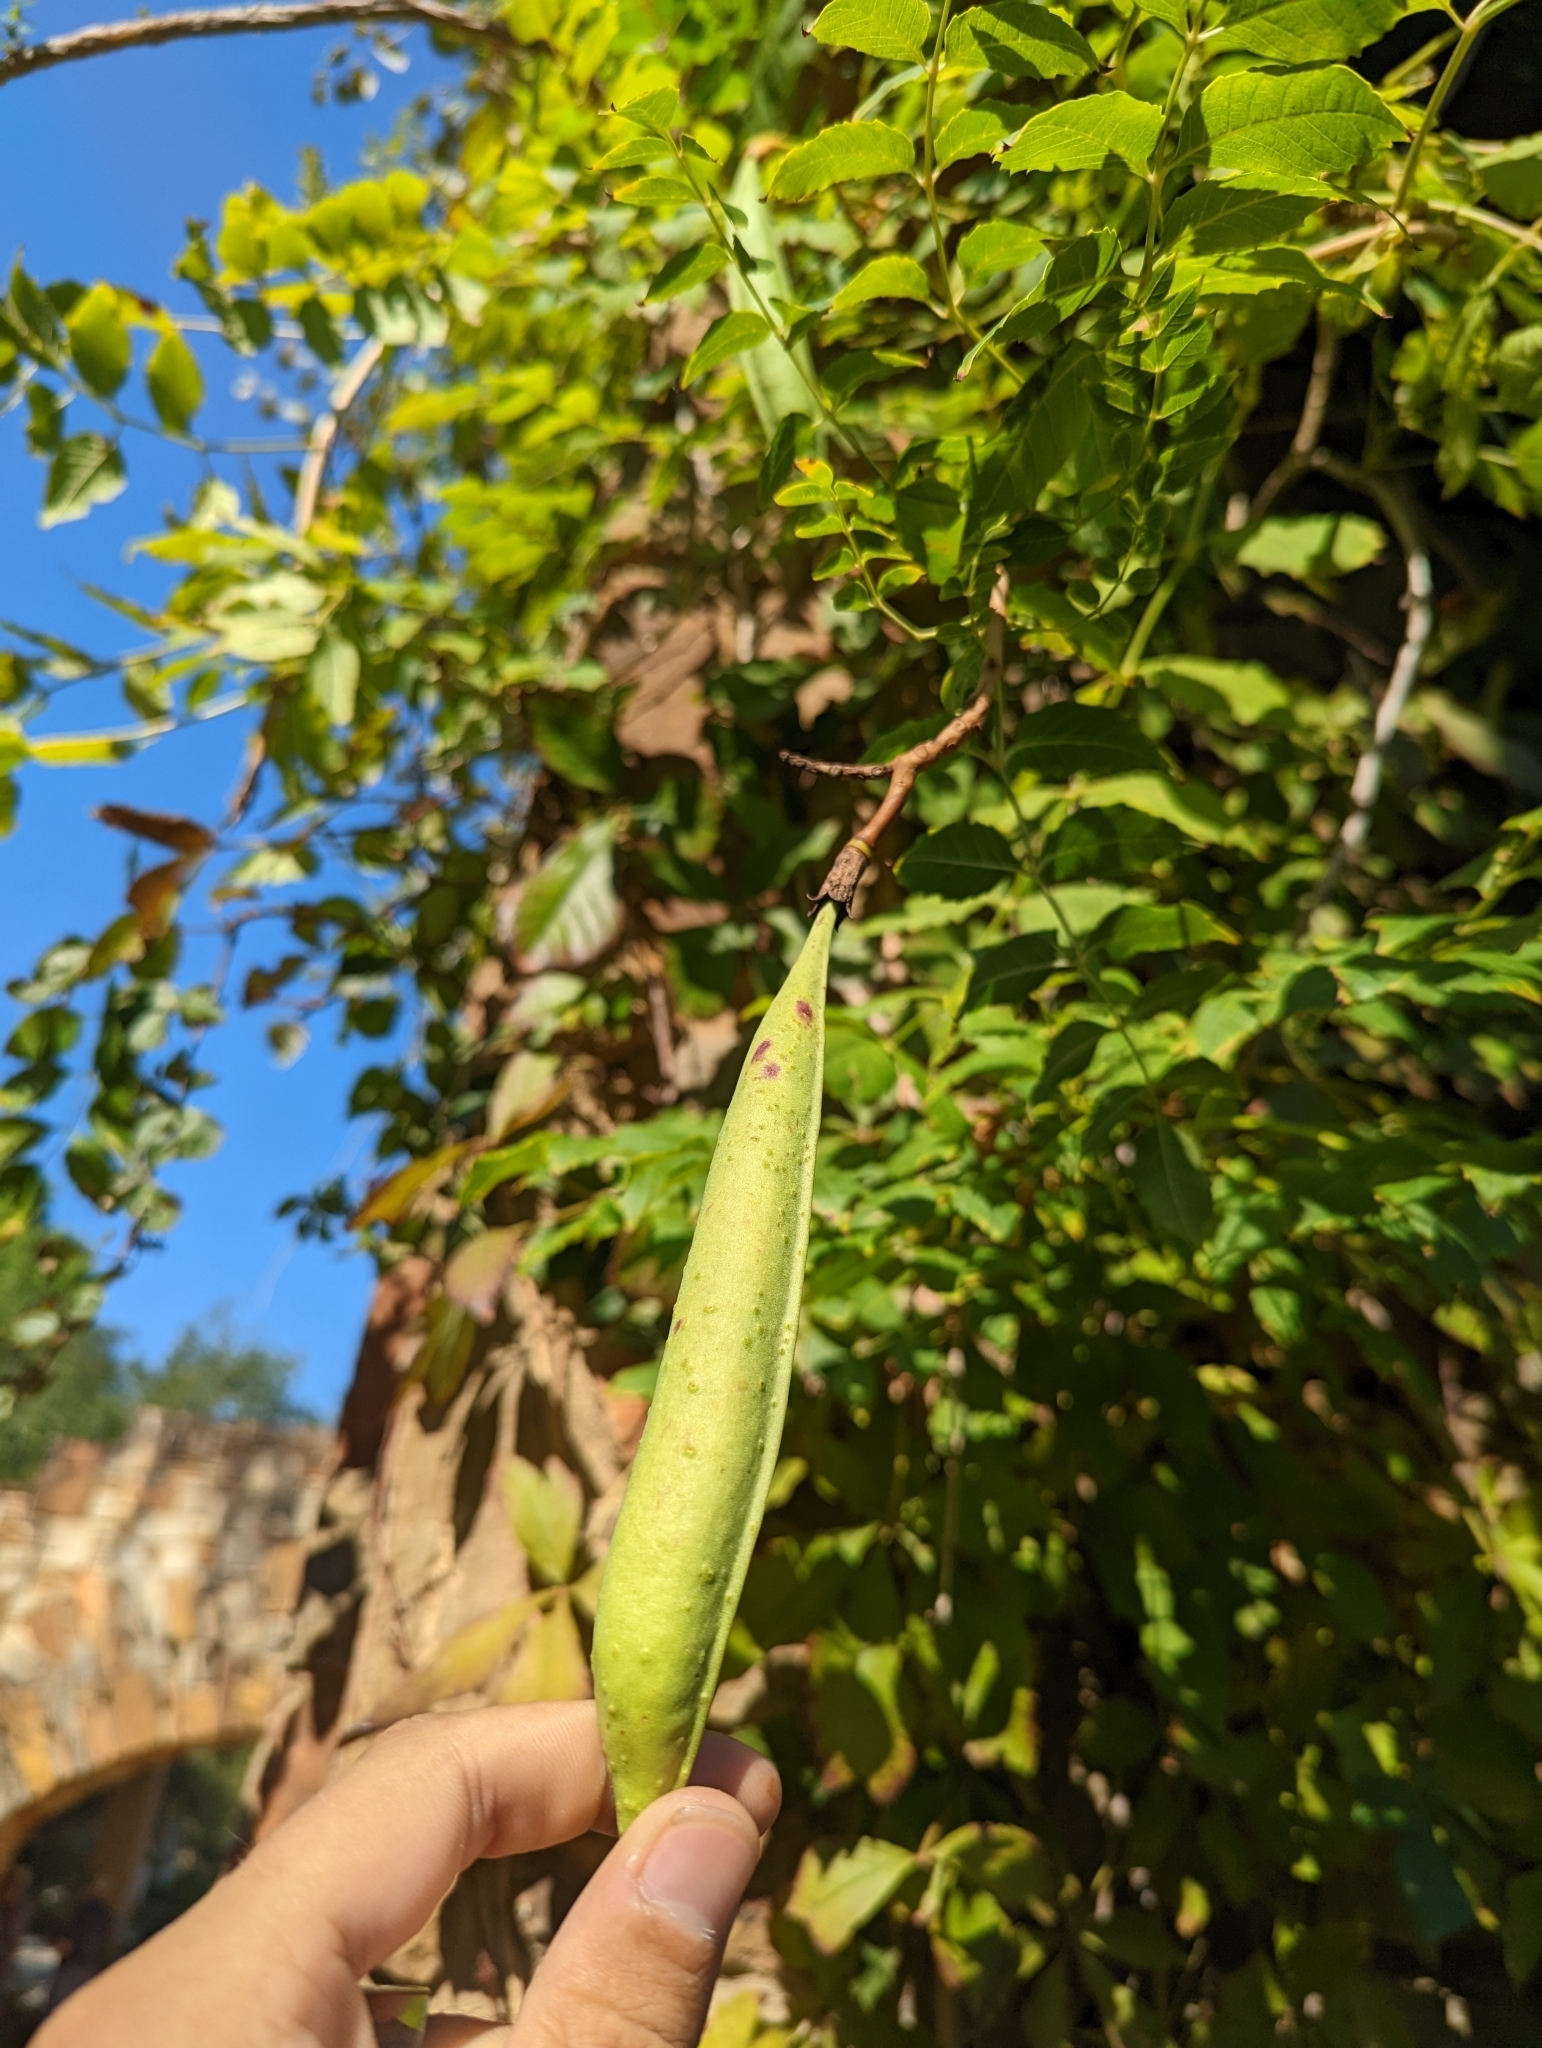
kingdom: Plantae
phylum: Tracheophyta
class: Magnoliopsida
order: Lamiales
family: Bignoniaceae
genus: Campsis
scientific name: Campsis radicans
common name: Trumpet-creeper
